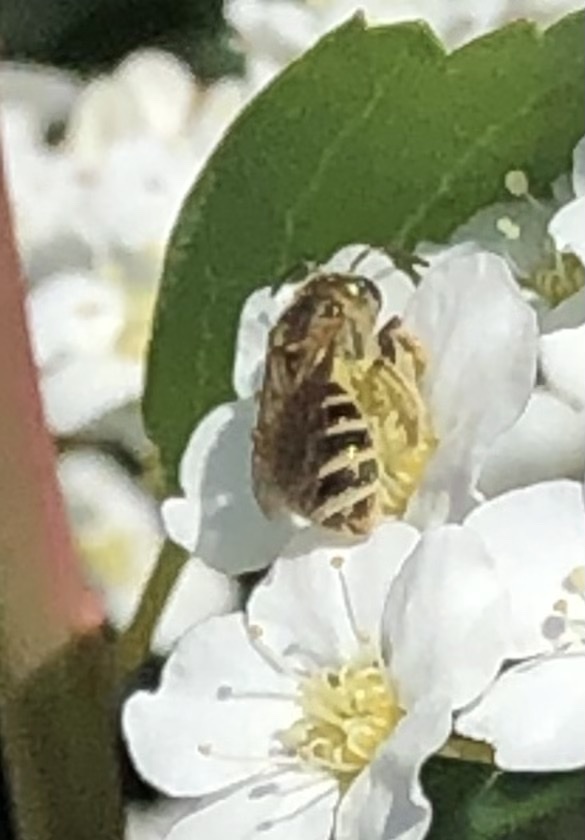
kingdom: Animalia
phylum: Arthropoda
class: Insecta
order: Hymenoptera
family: Halictidae
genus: Halictus
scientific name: Halictus confusus
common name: Southern bronze furrow bee
